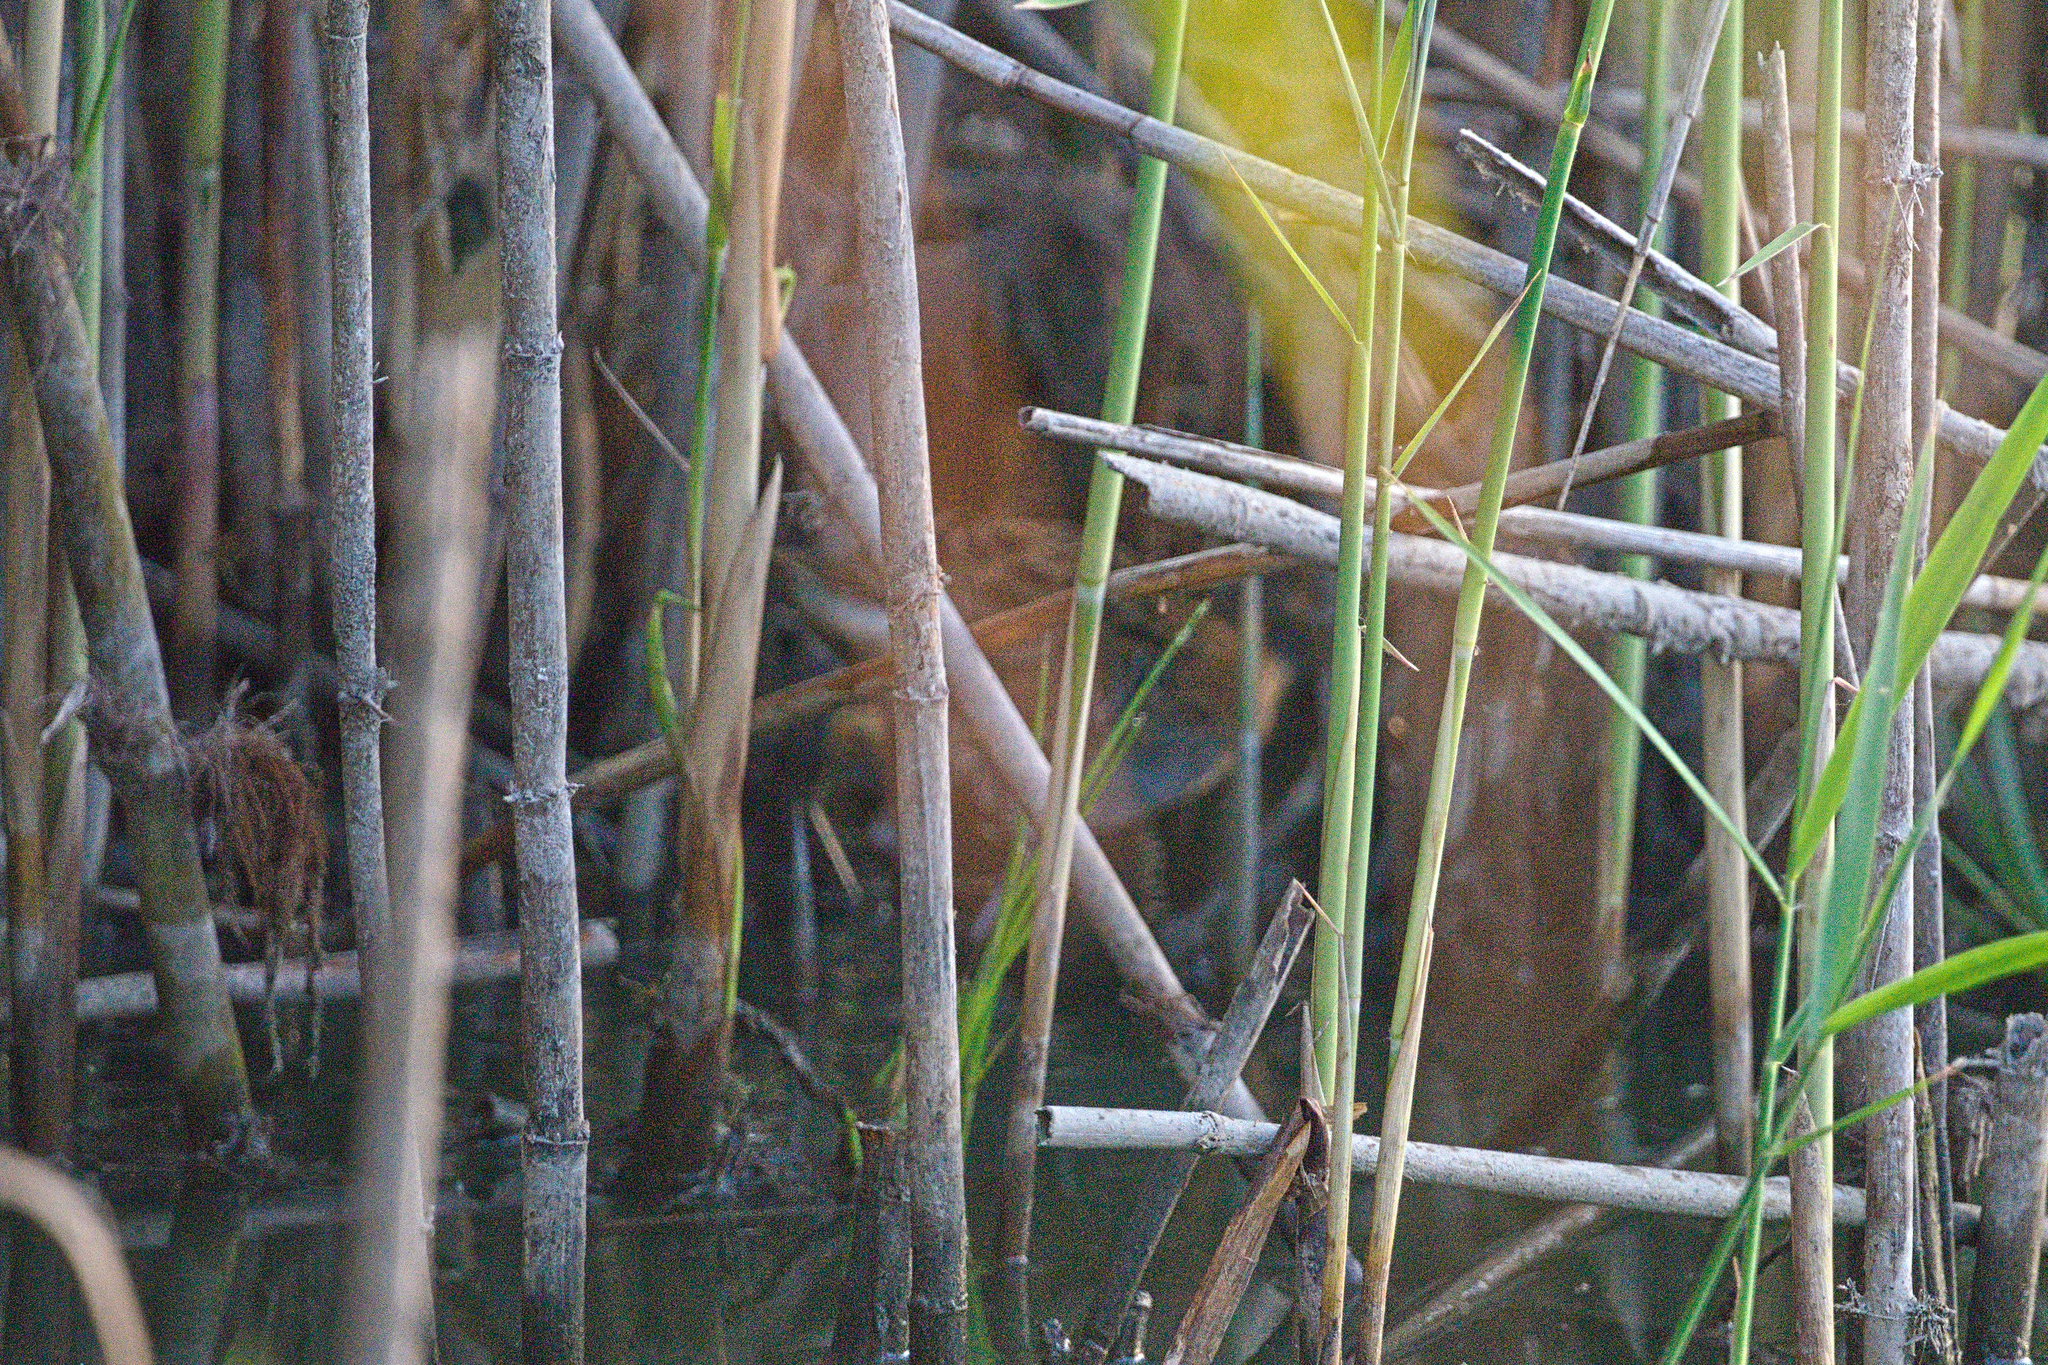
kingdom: Animalia
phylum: Chordata
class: Aves
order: Gruiformes
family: Rallidae
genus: Rallus
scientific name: Rallus aquaticus
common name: Water rail
